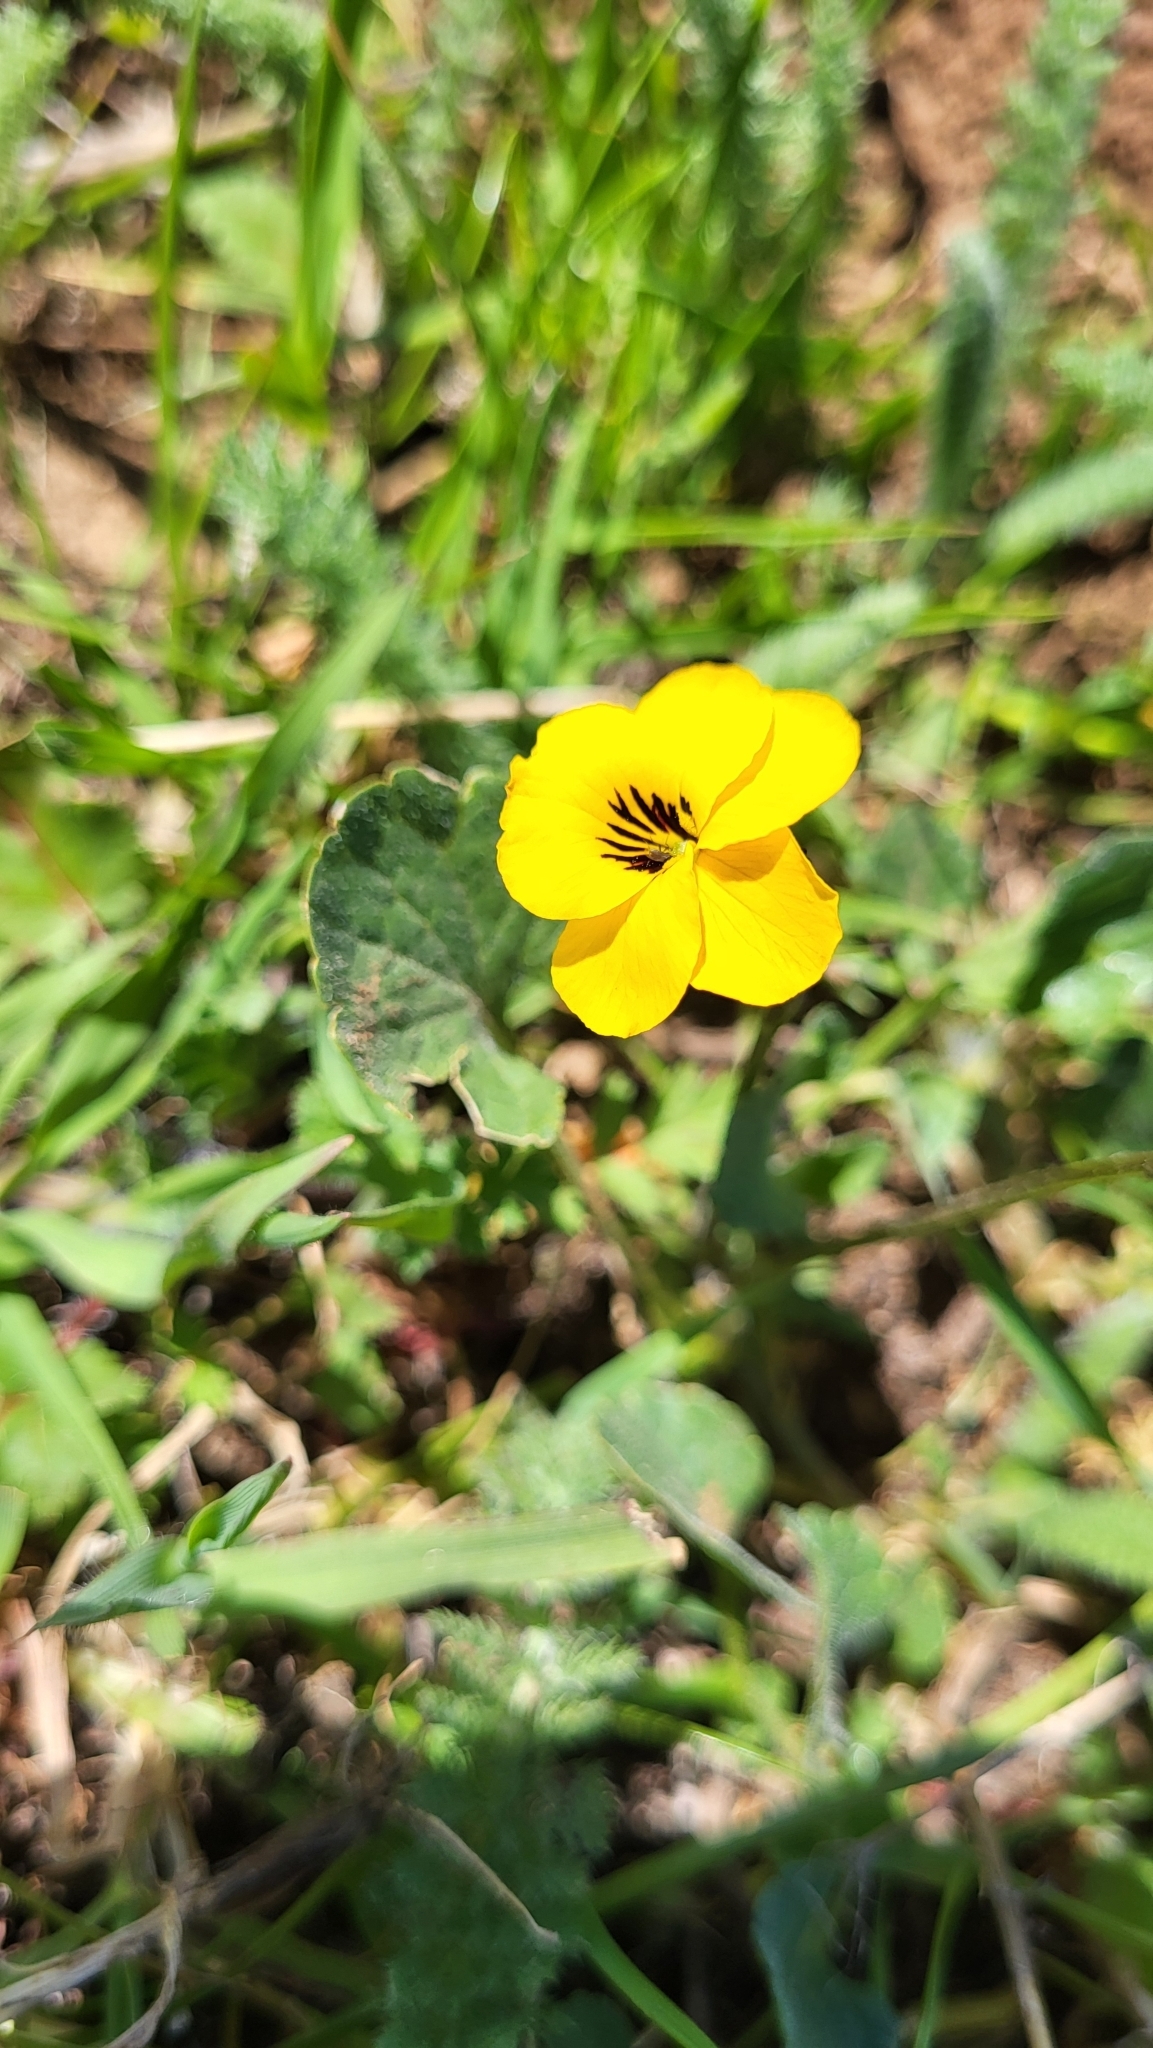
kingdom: Plantae
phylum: Tracheophyta
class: Magnoliopsida
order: Malpighiales
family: Violaceae
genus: Viola
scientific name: Viola pedunculata
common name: California golden violet
